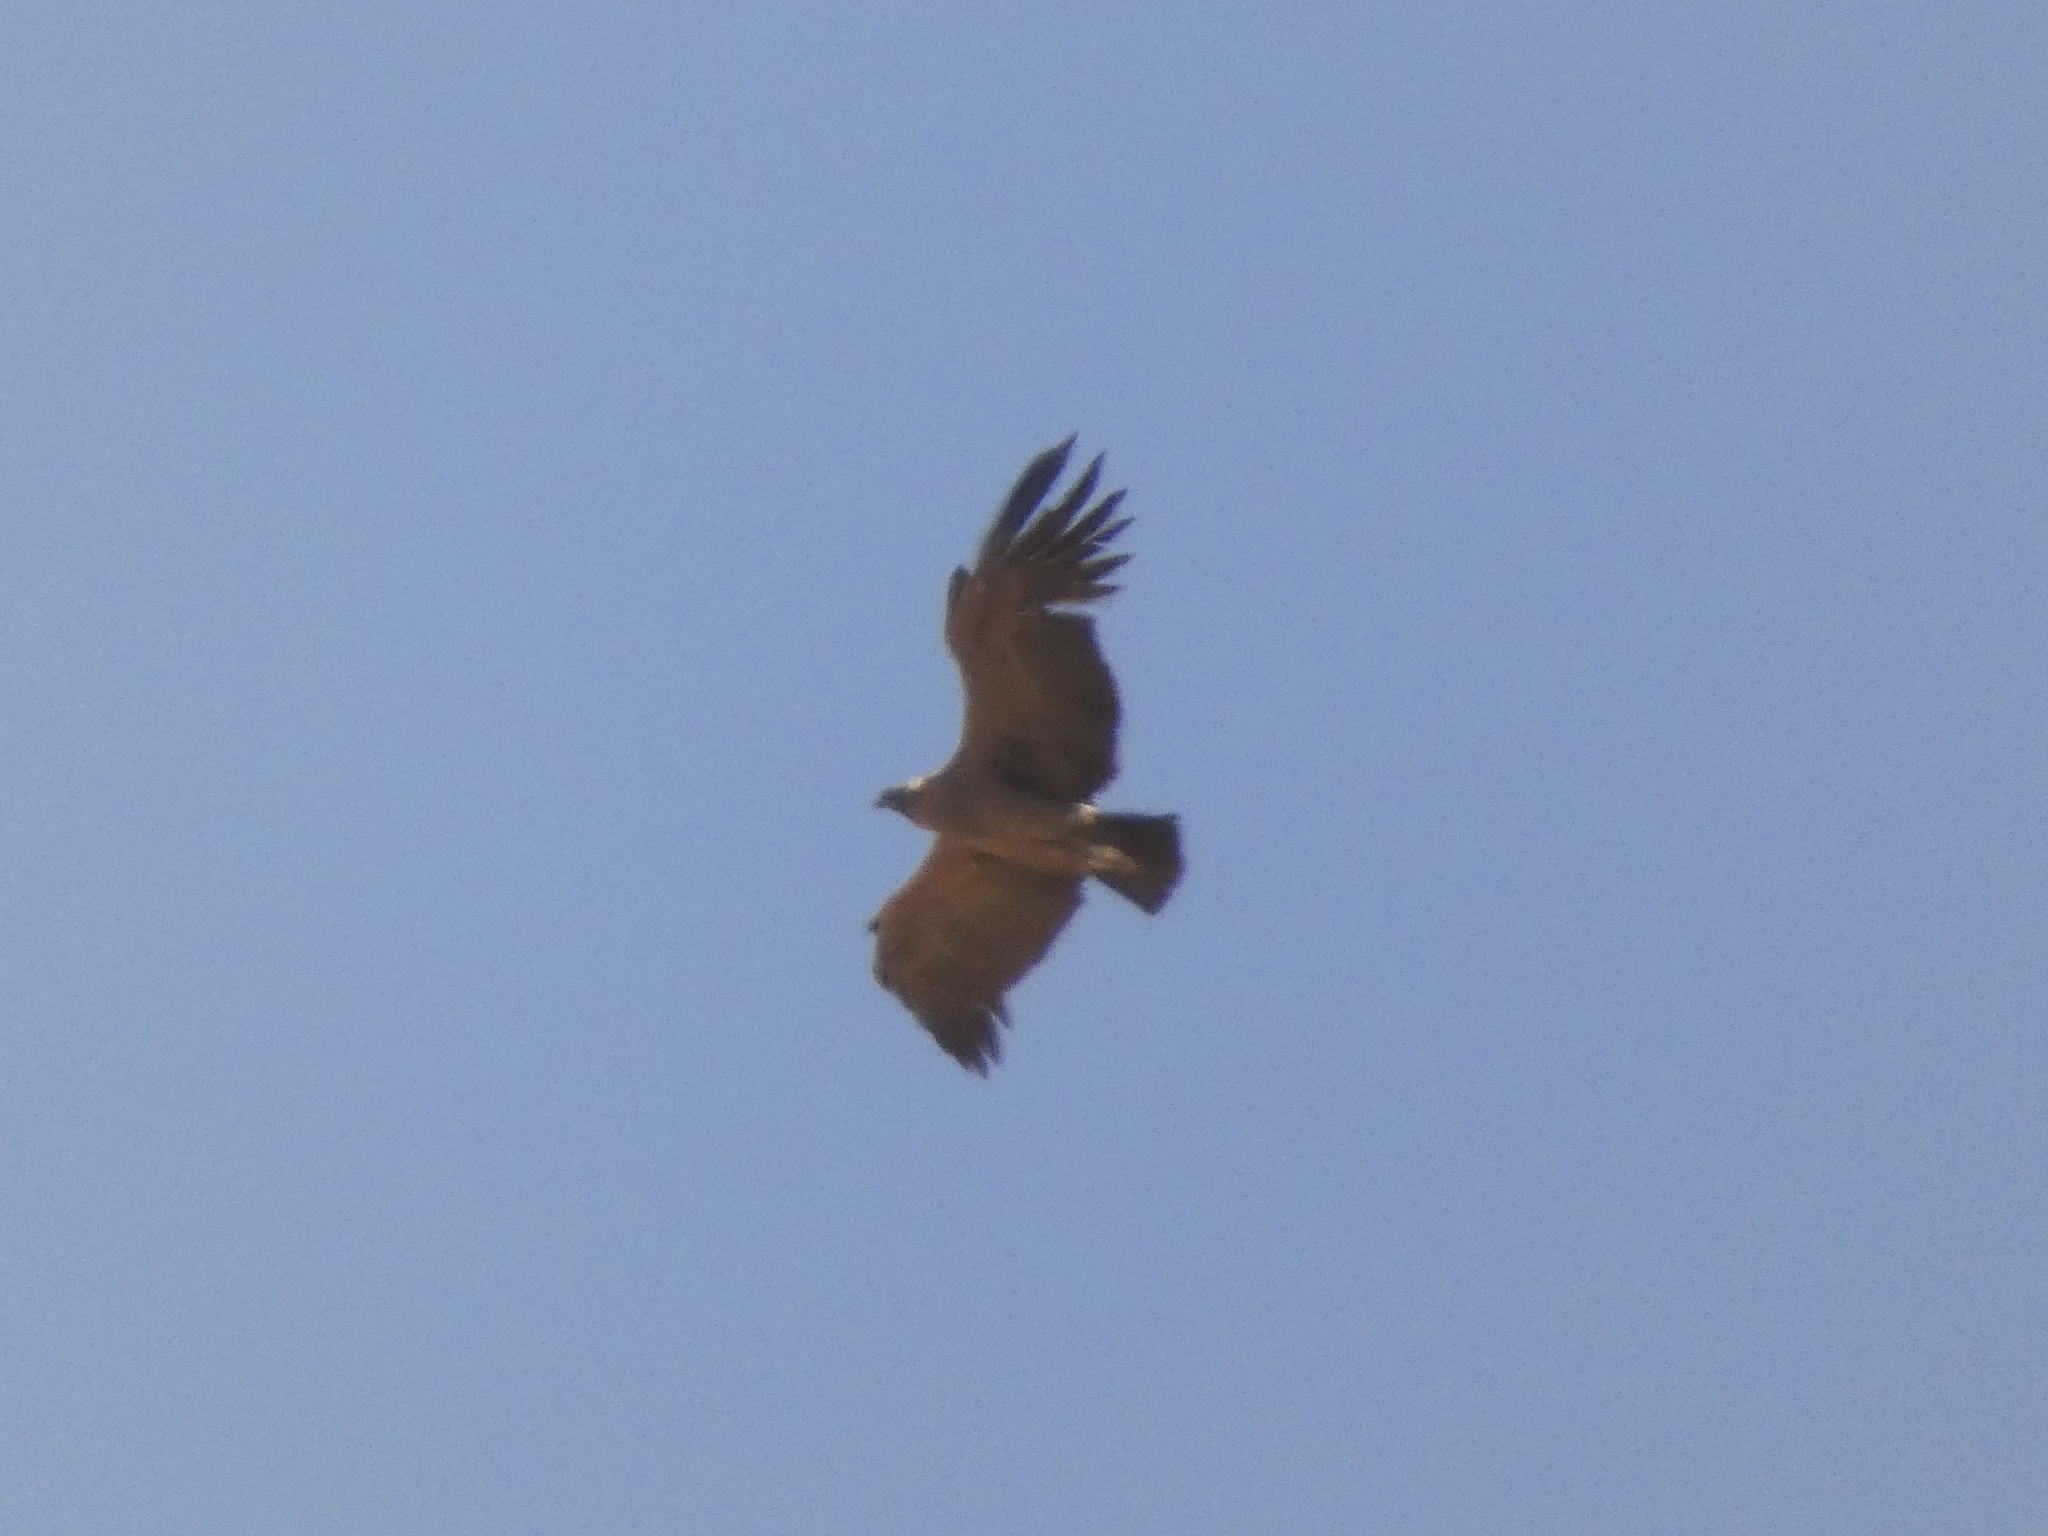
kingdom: Animalia
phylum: Chordata
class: Aves
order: Accipitriformes
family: Cathartidae
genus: Vultur
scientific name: Vultur gryphus
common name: Andean condor
